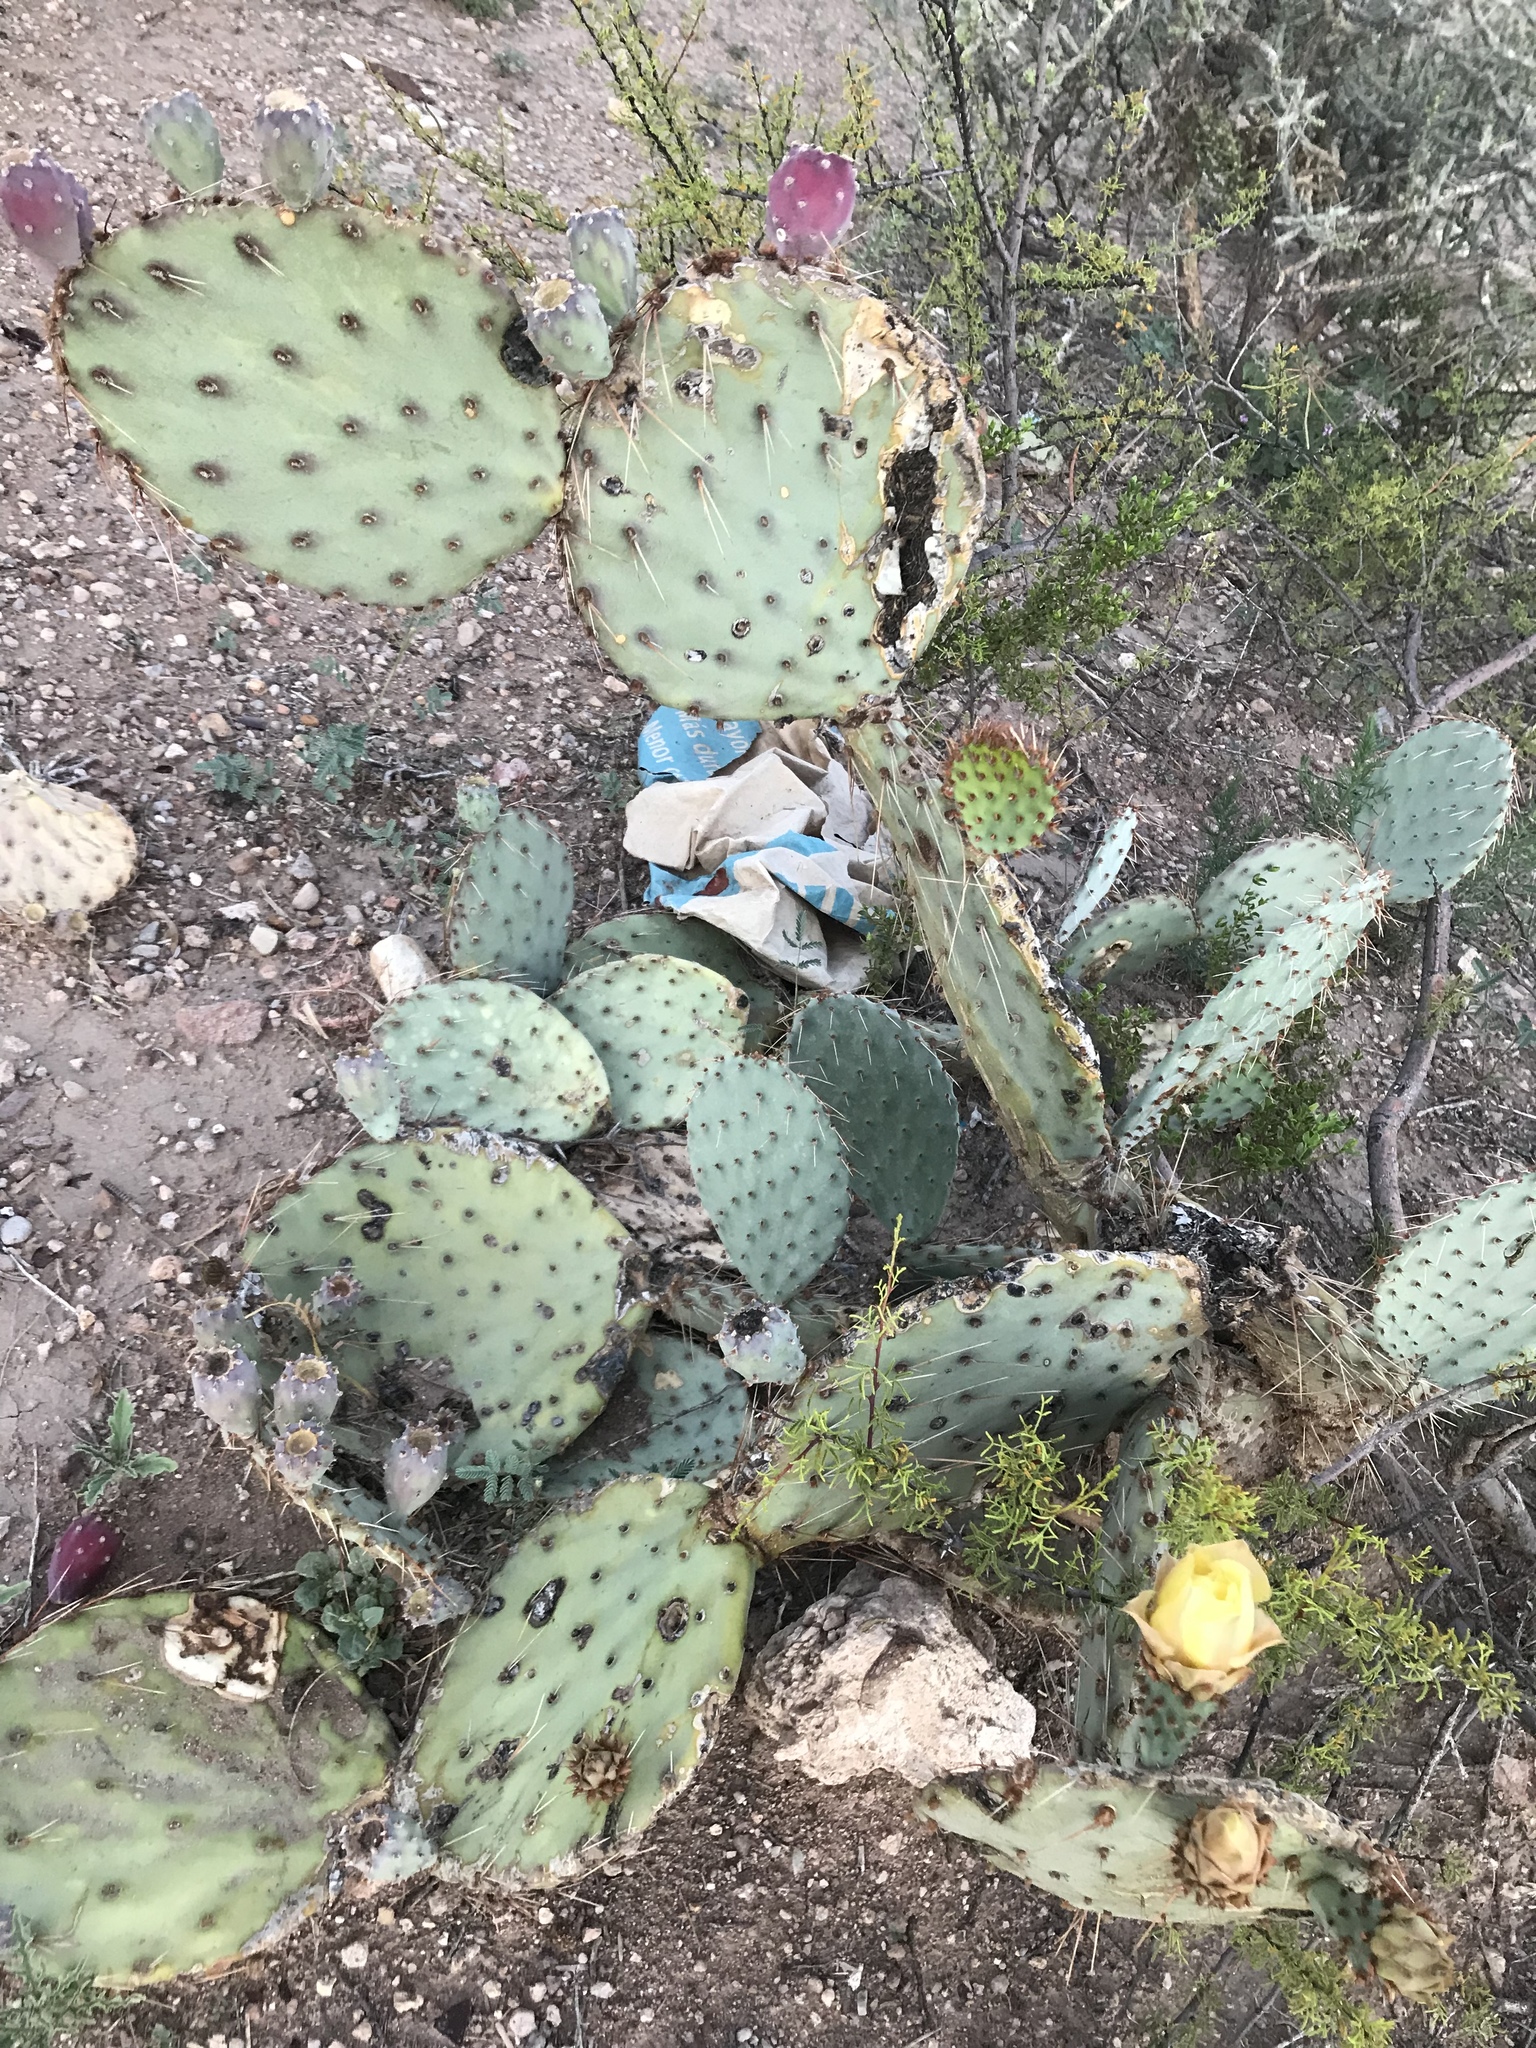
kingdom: Plantae
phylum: Tracheophyta
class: Magnoliopsida
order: Caryophyllales
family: Cactaceae
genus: Opuntia
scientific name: Opuntia phaeacantha
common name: New mexico prickly-pear
